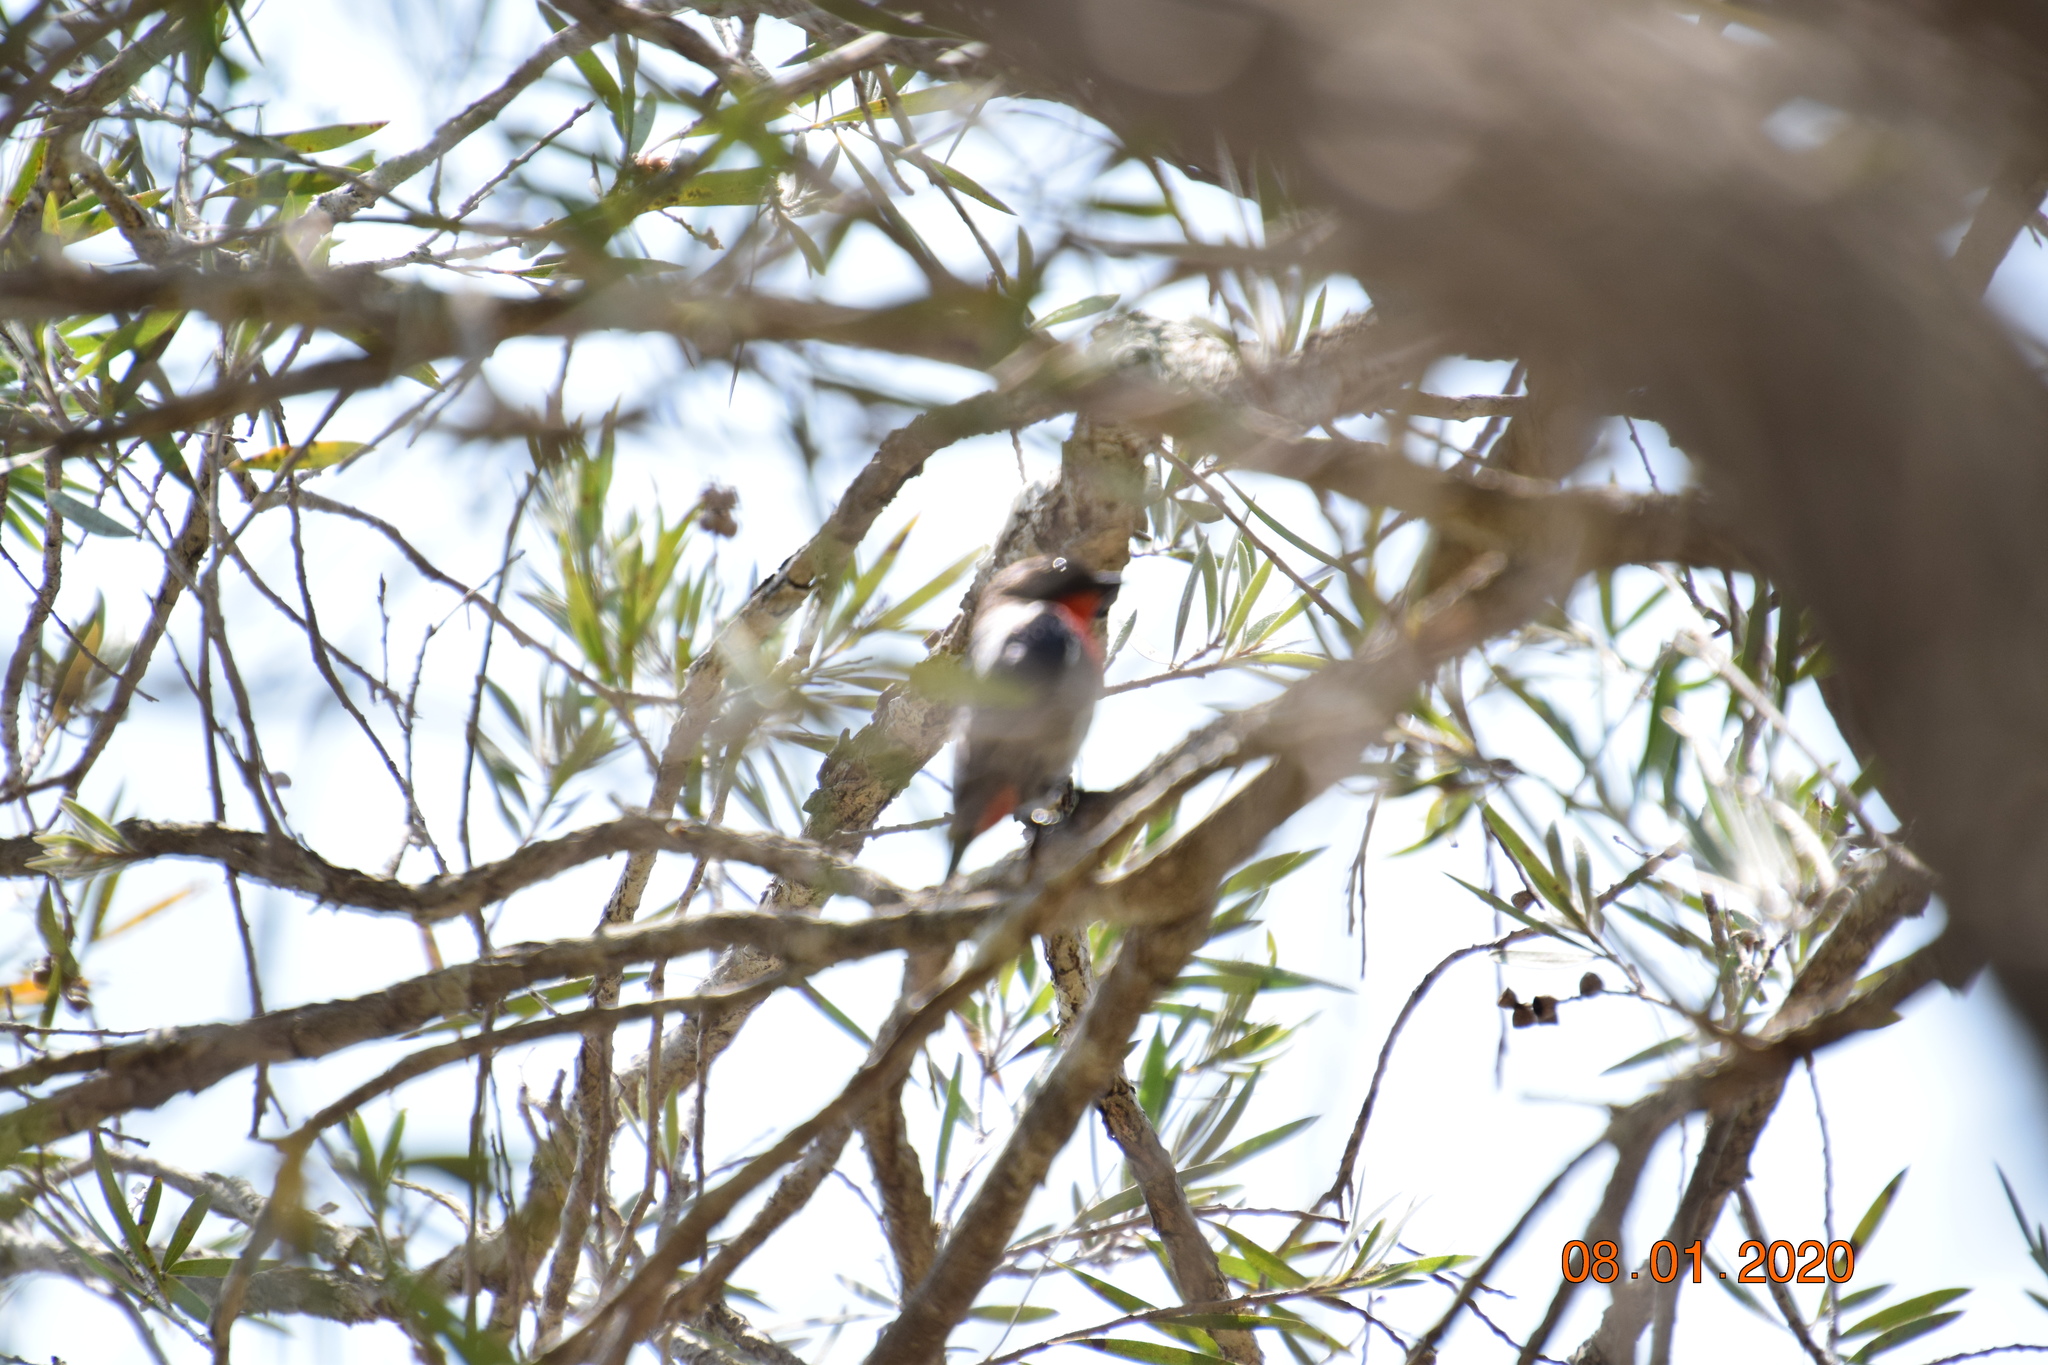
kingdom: Animalia
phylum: Chordata
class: Aves
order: Passeriformes
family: Dicaeidae
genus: Dicaeum
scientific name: Dicaeum hirundinaceum
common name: Mistletoebird
